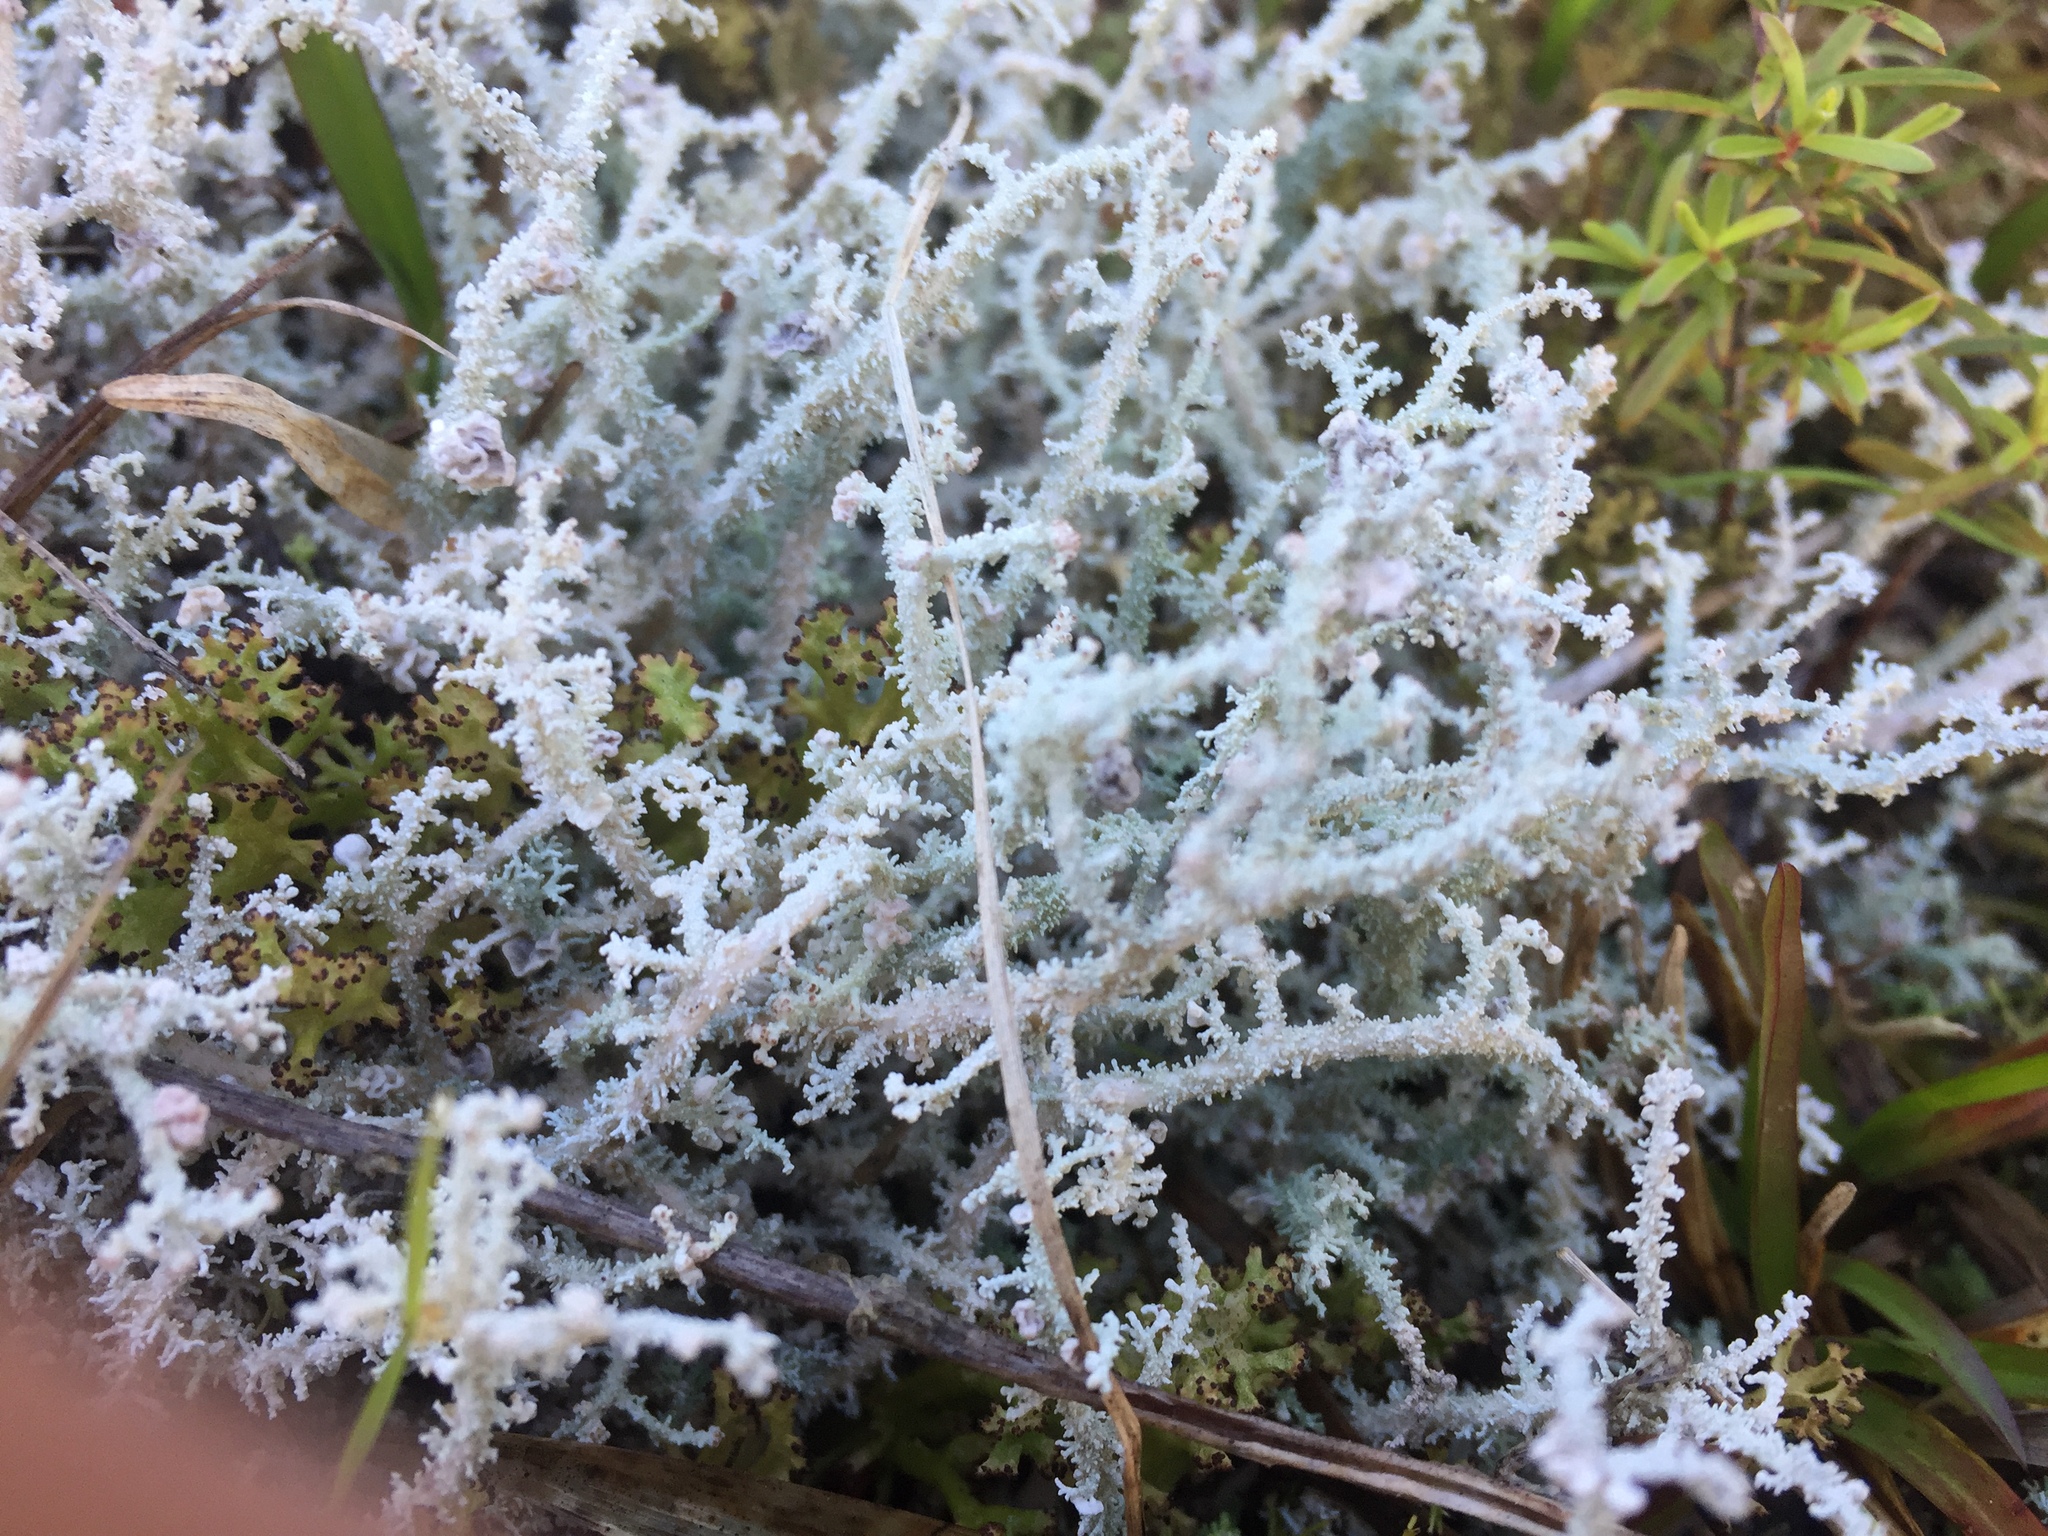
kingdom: Fungi
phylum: Ascomycota
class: Lecanoromycetes
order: Lecanorales
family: Stereocaulaceae
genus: Stereocaulon
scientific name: Stereocaulon ramulosum
